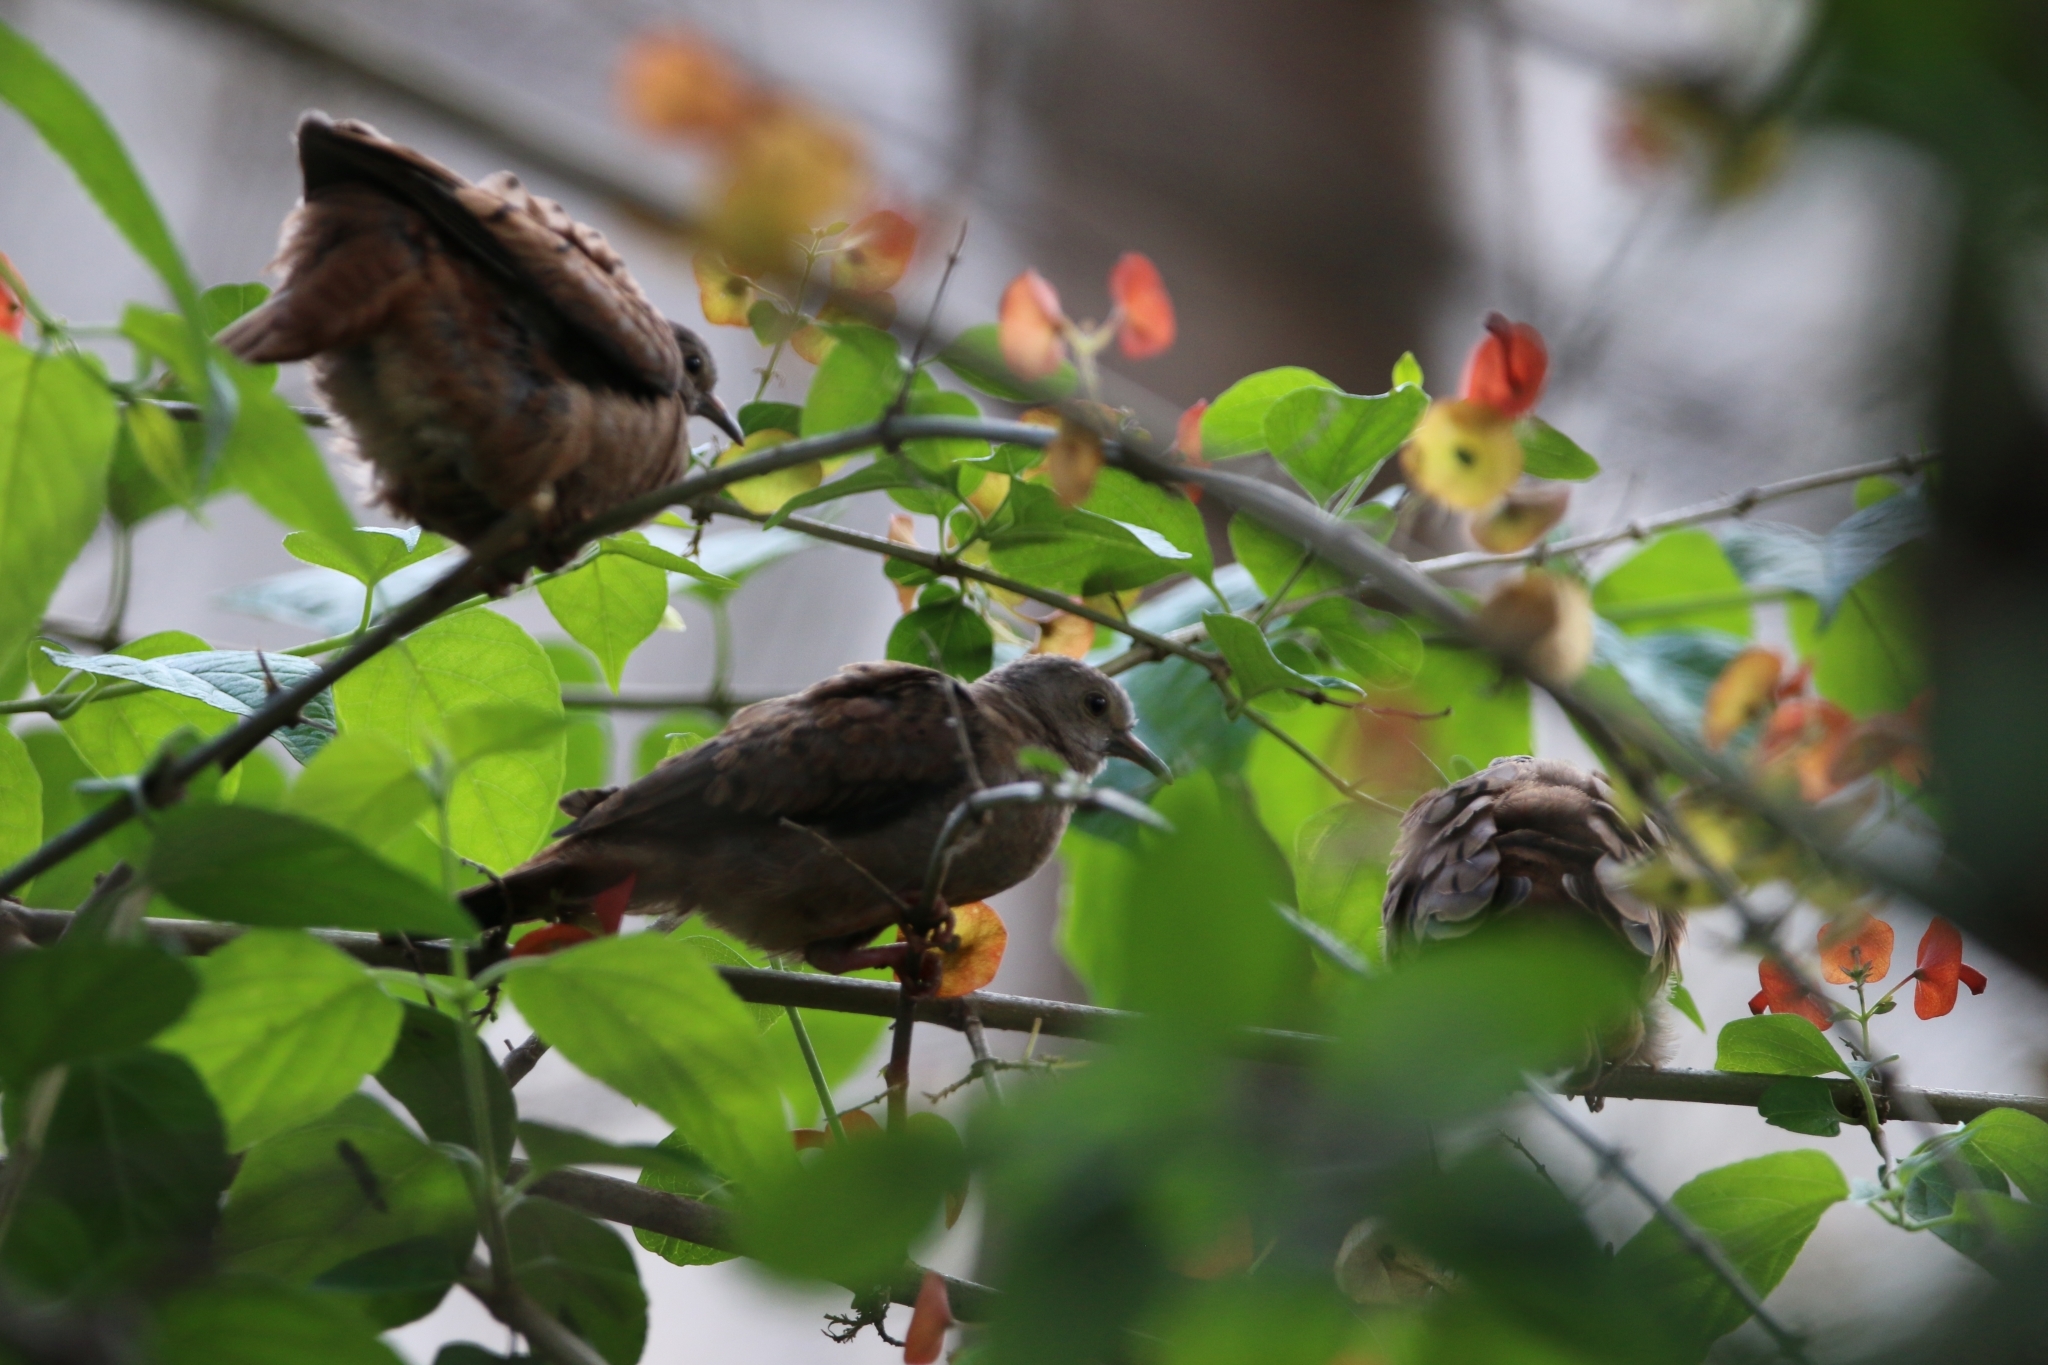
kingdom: Animalia
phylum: Chordata
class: Aves
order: Columbiformes
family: Columbidae
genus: Columbina
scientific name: Columbina talpacoti
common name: Ruddy ground dove
